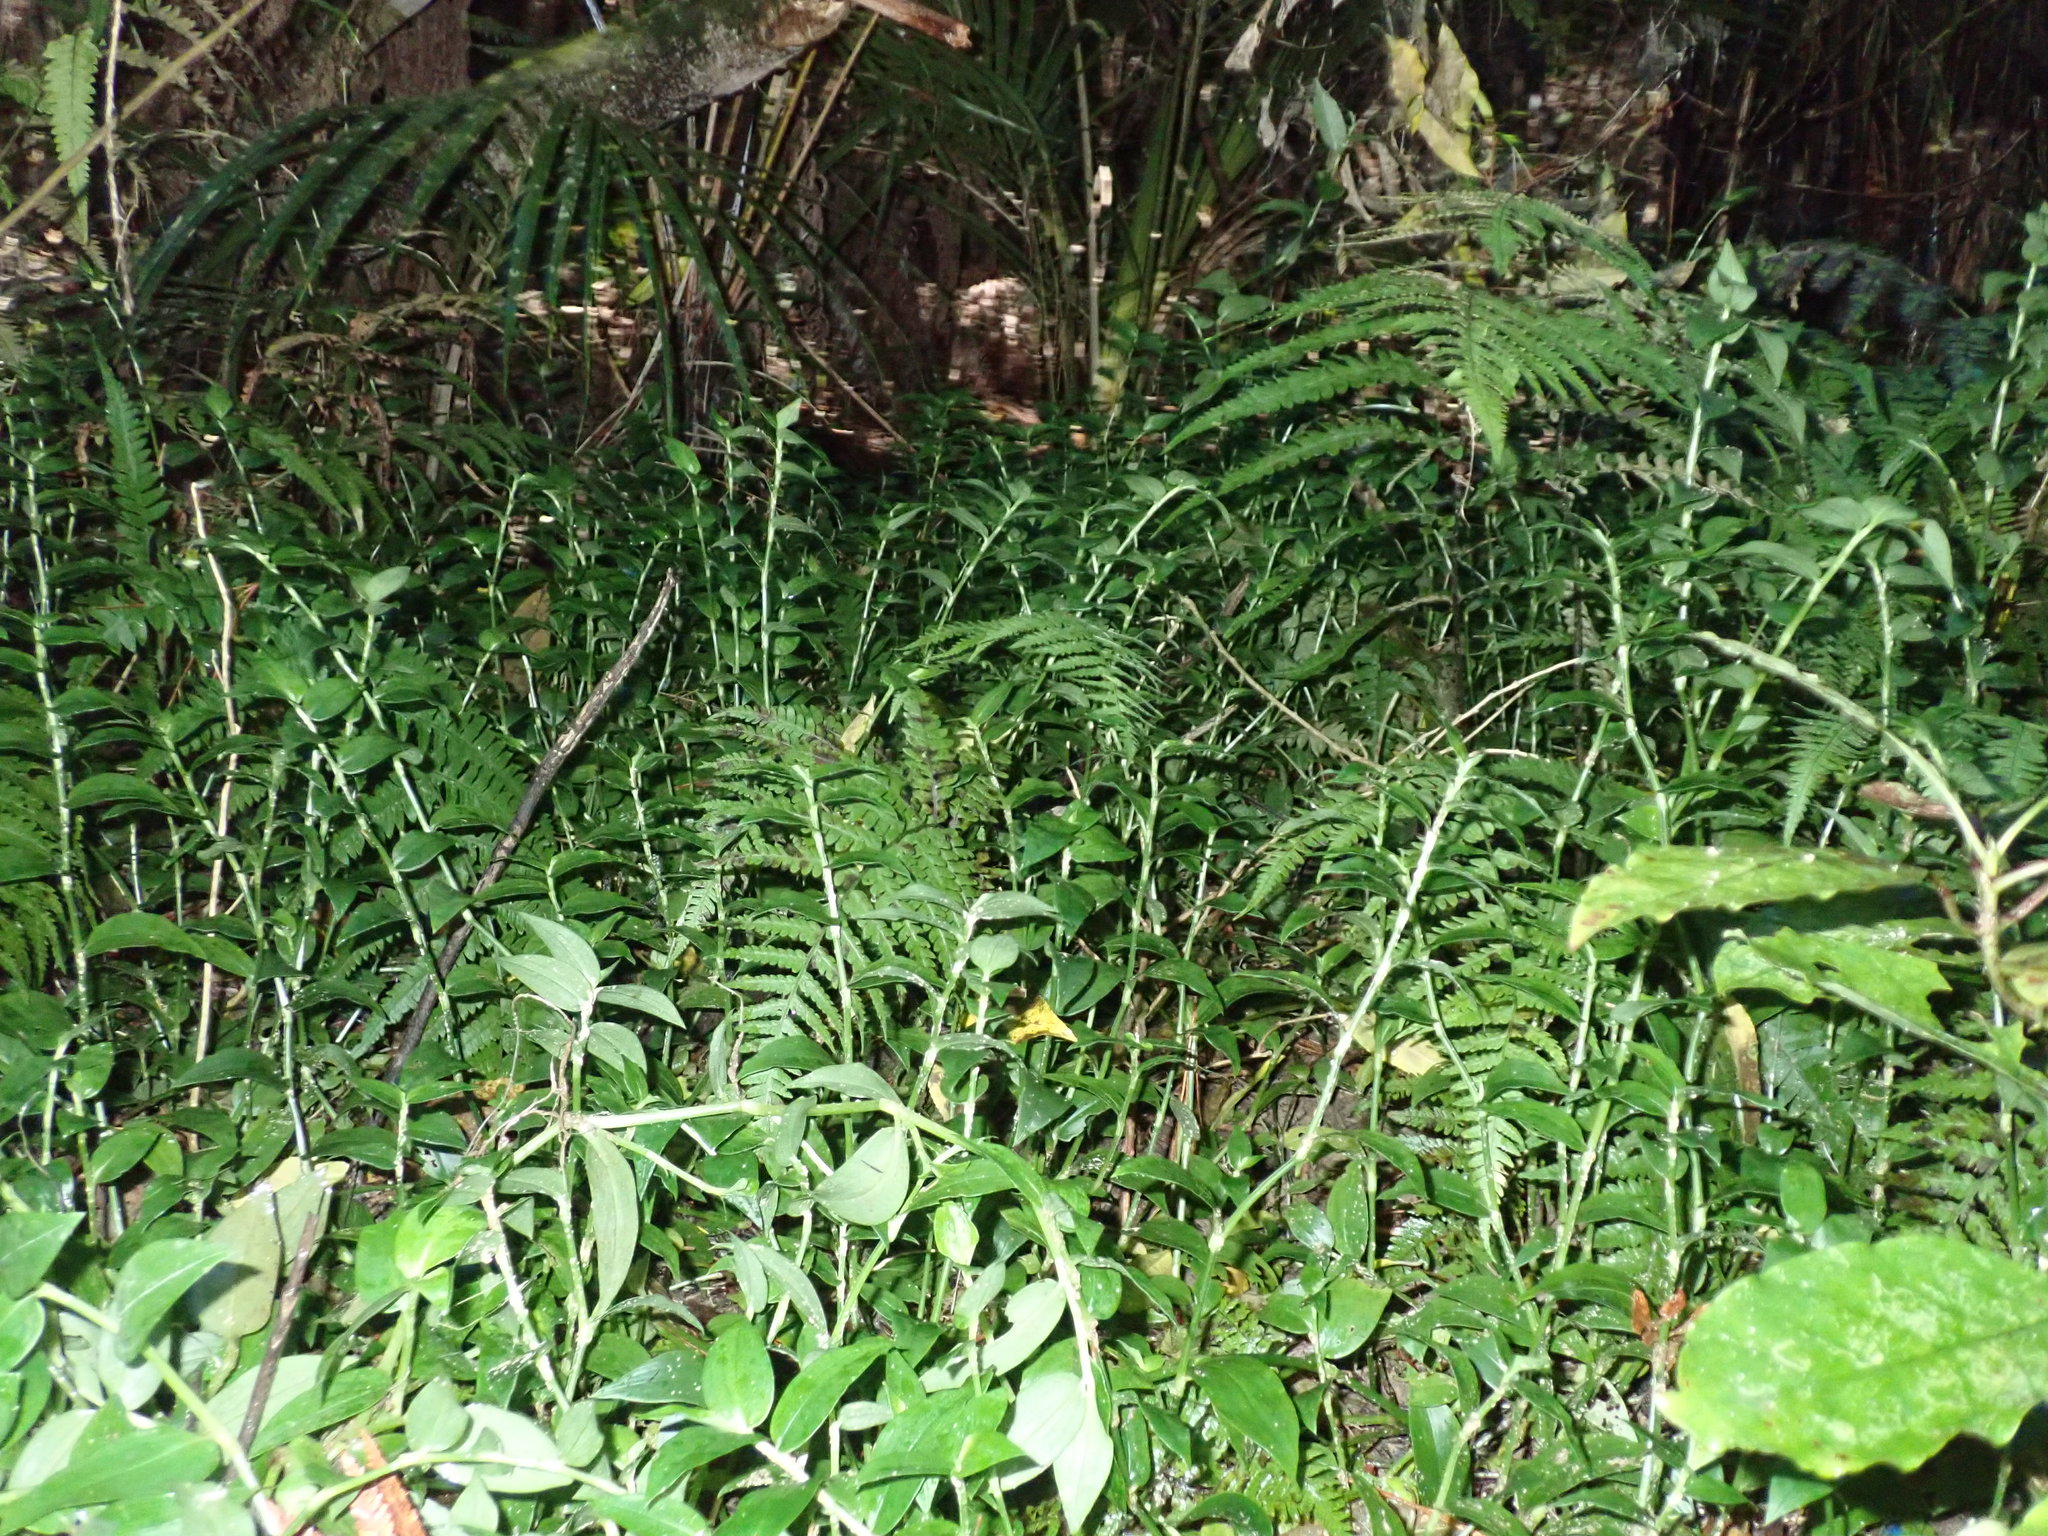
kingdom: Plantae
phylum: Tracheophyta
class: Liliopsida
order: Arecales
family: Arecaceae
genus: Rhopalostylis
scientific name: Rhopalostylis sapida
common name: Feather-duster palm
